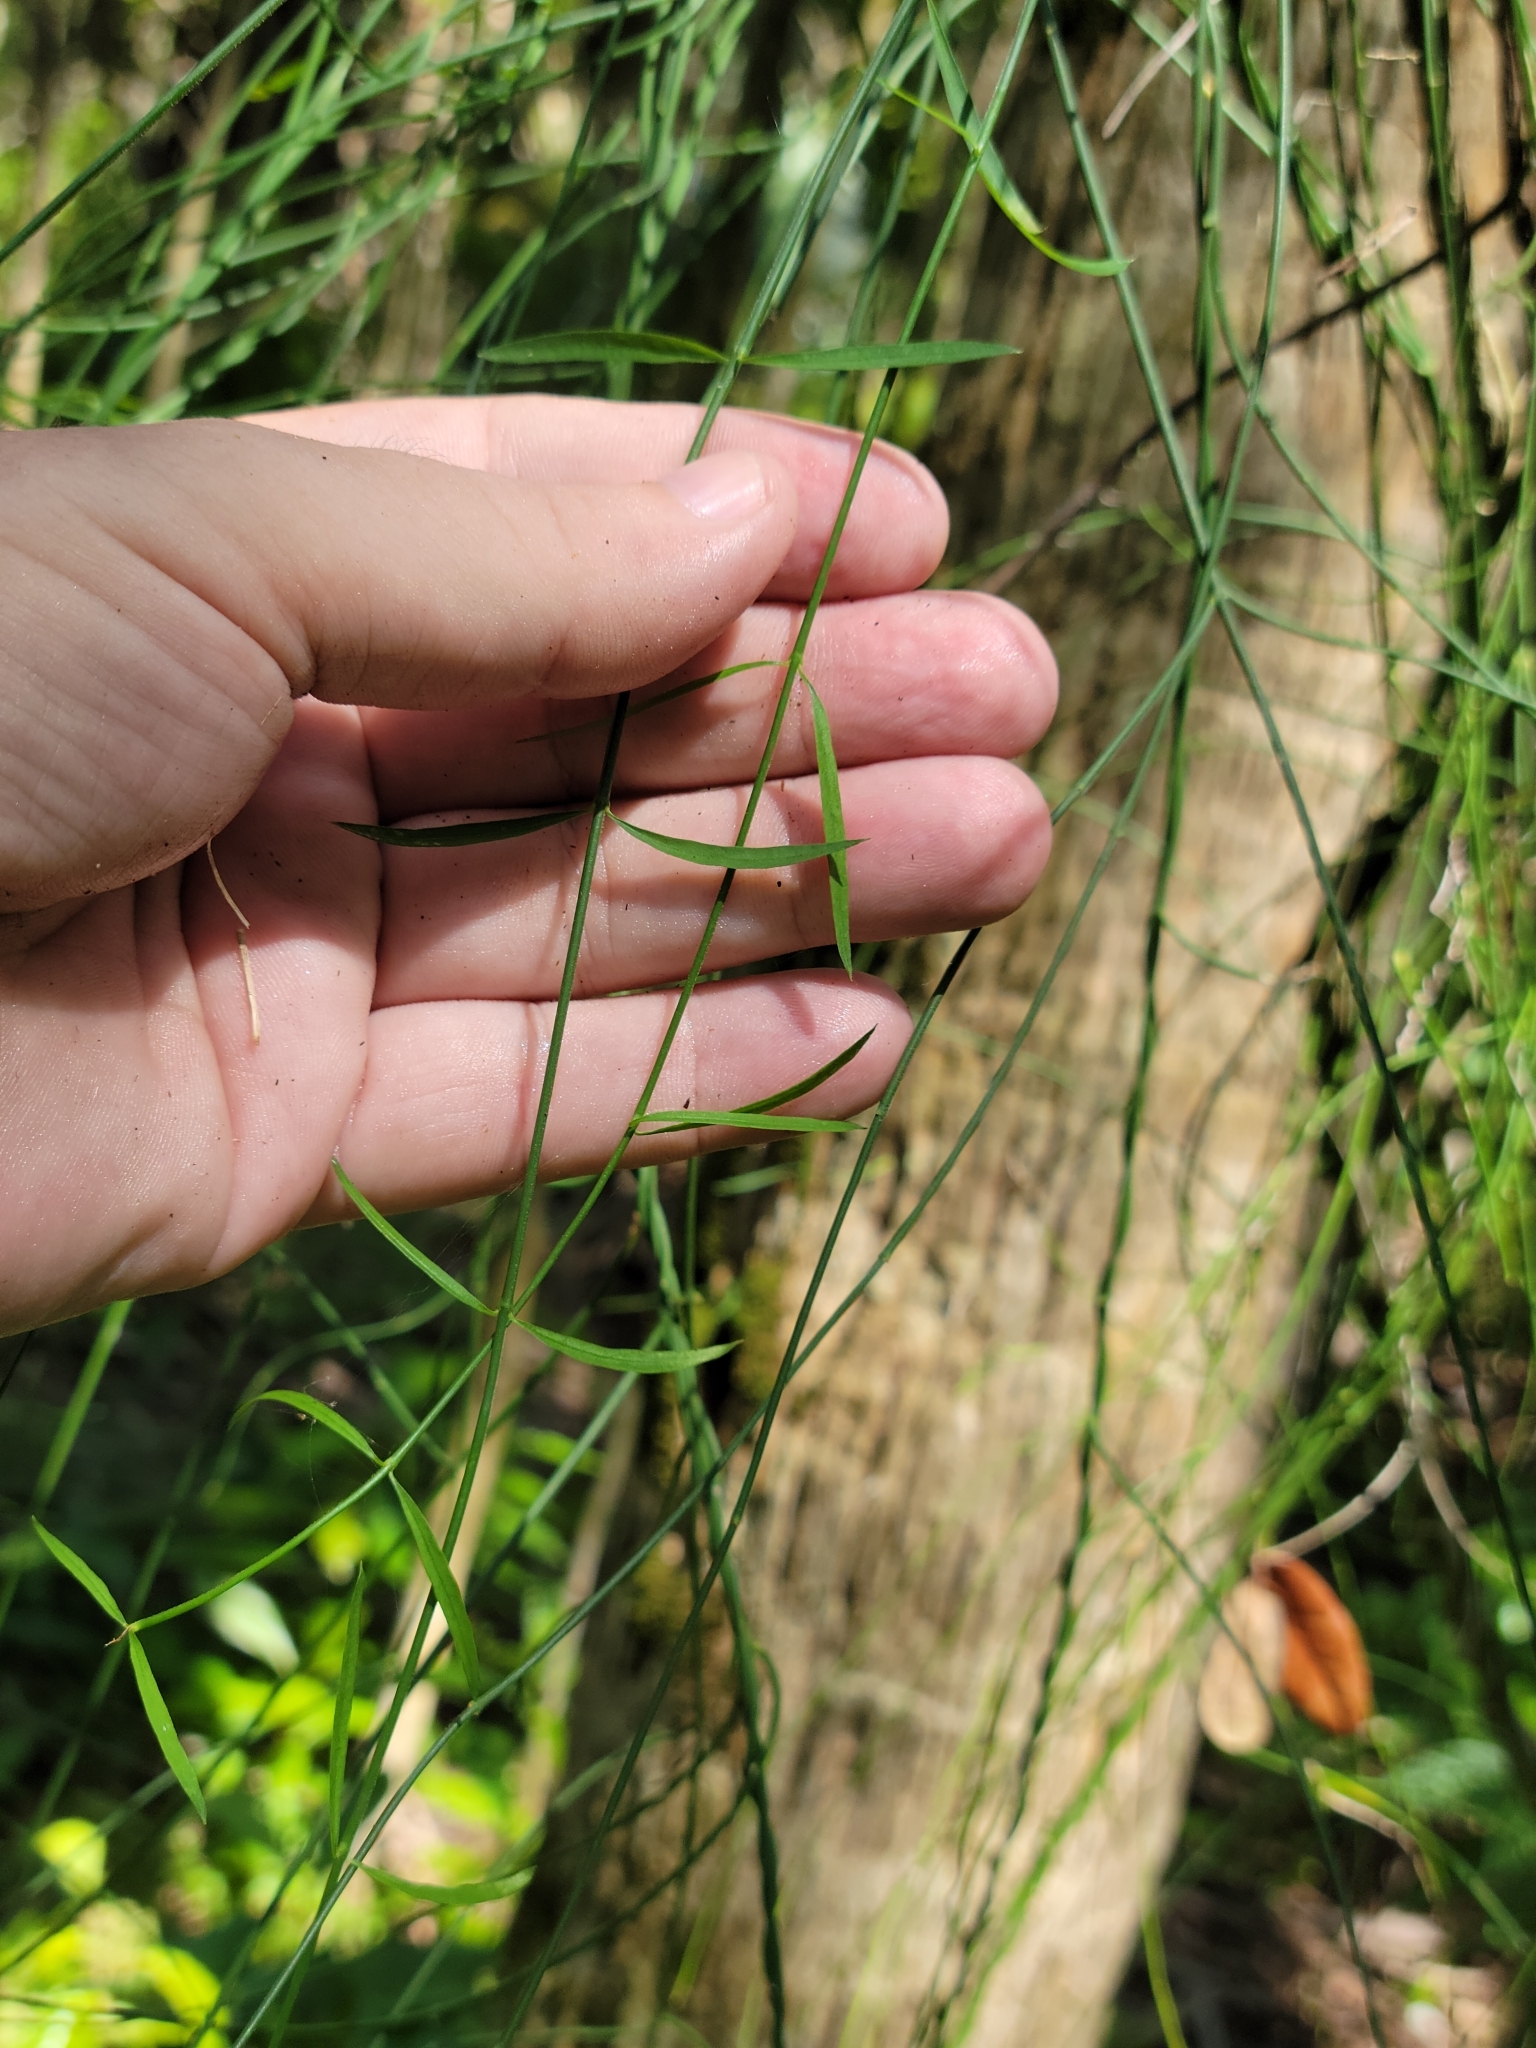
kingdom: Plantae
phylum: Tracheophyta
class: Magnoliopsida
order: Gentianales
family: Apocynaceae
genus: Orthosia
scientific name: Orthosia scoparia
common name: Leafless swallow-wort
